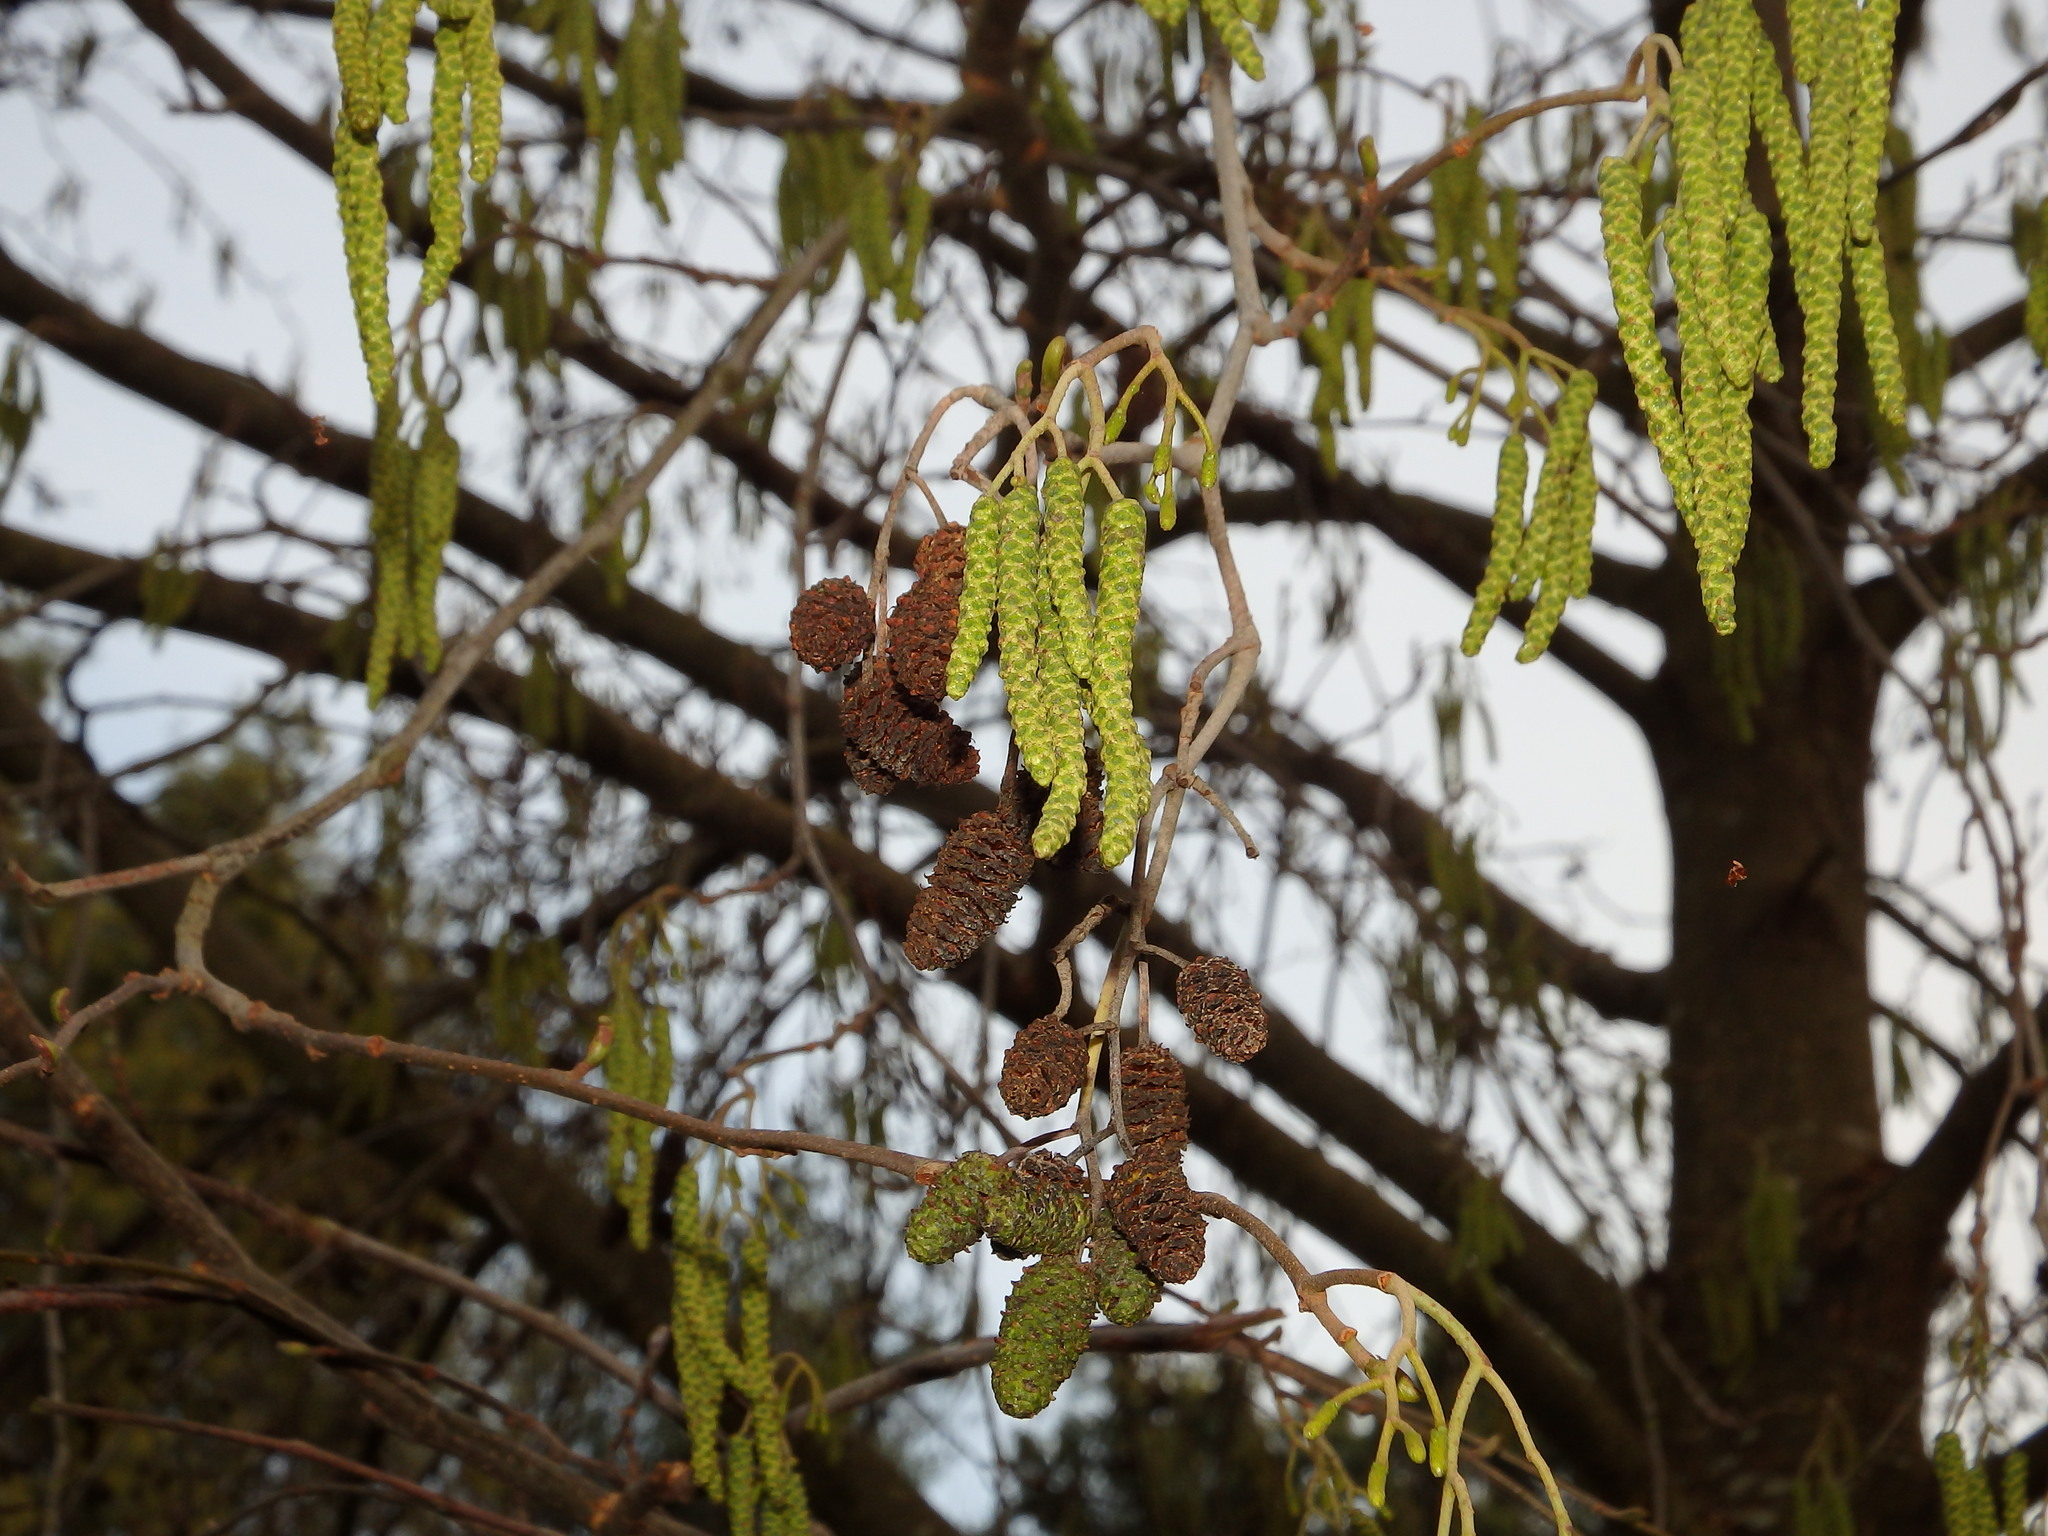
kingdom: Plantae
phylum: Tracheophyta
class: Magnoliopsida
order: Fagales
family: Betulaceae
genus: Alnus
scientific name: Alnus lusitanica
